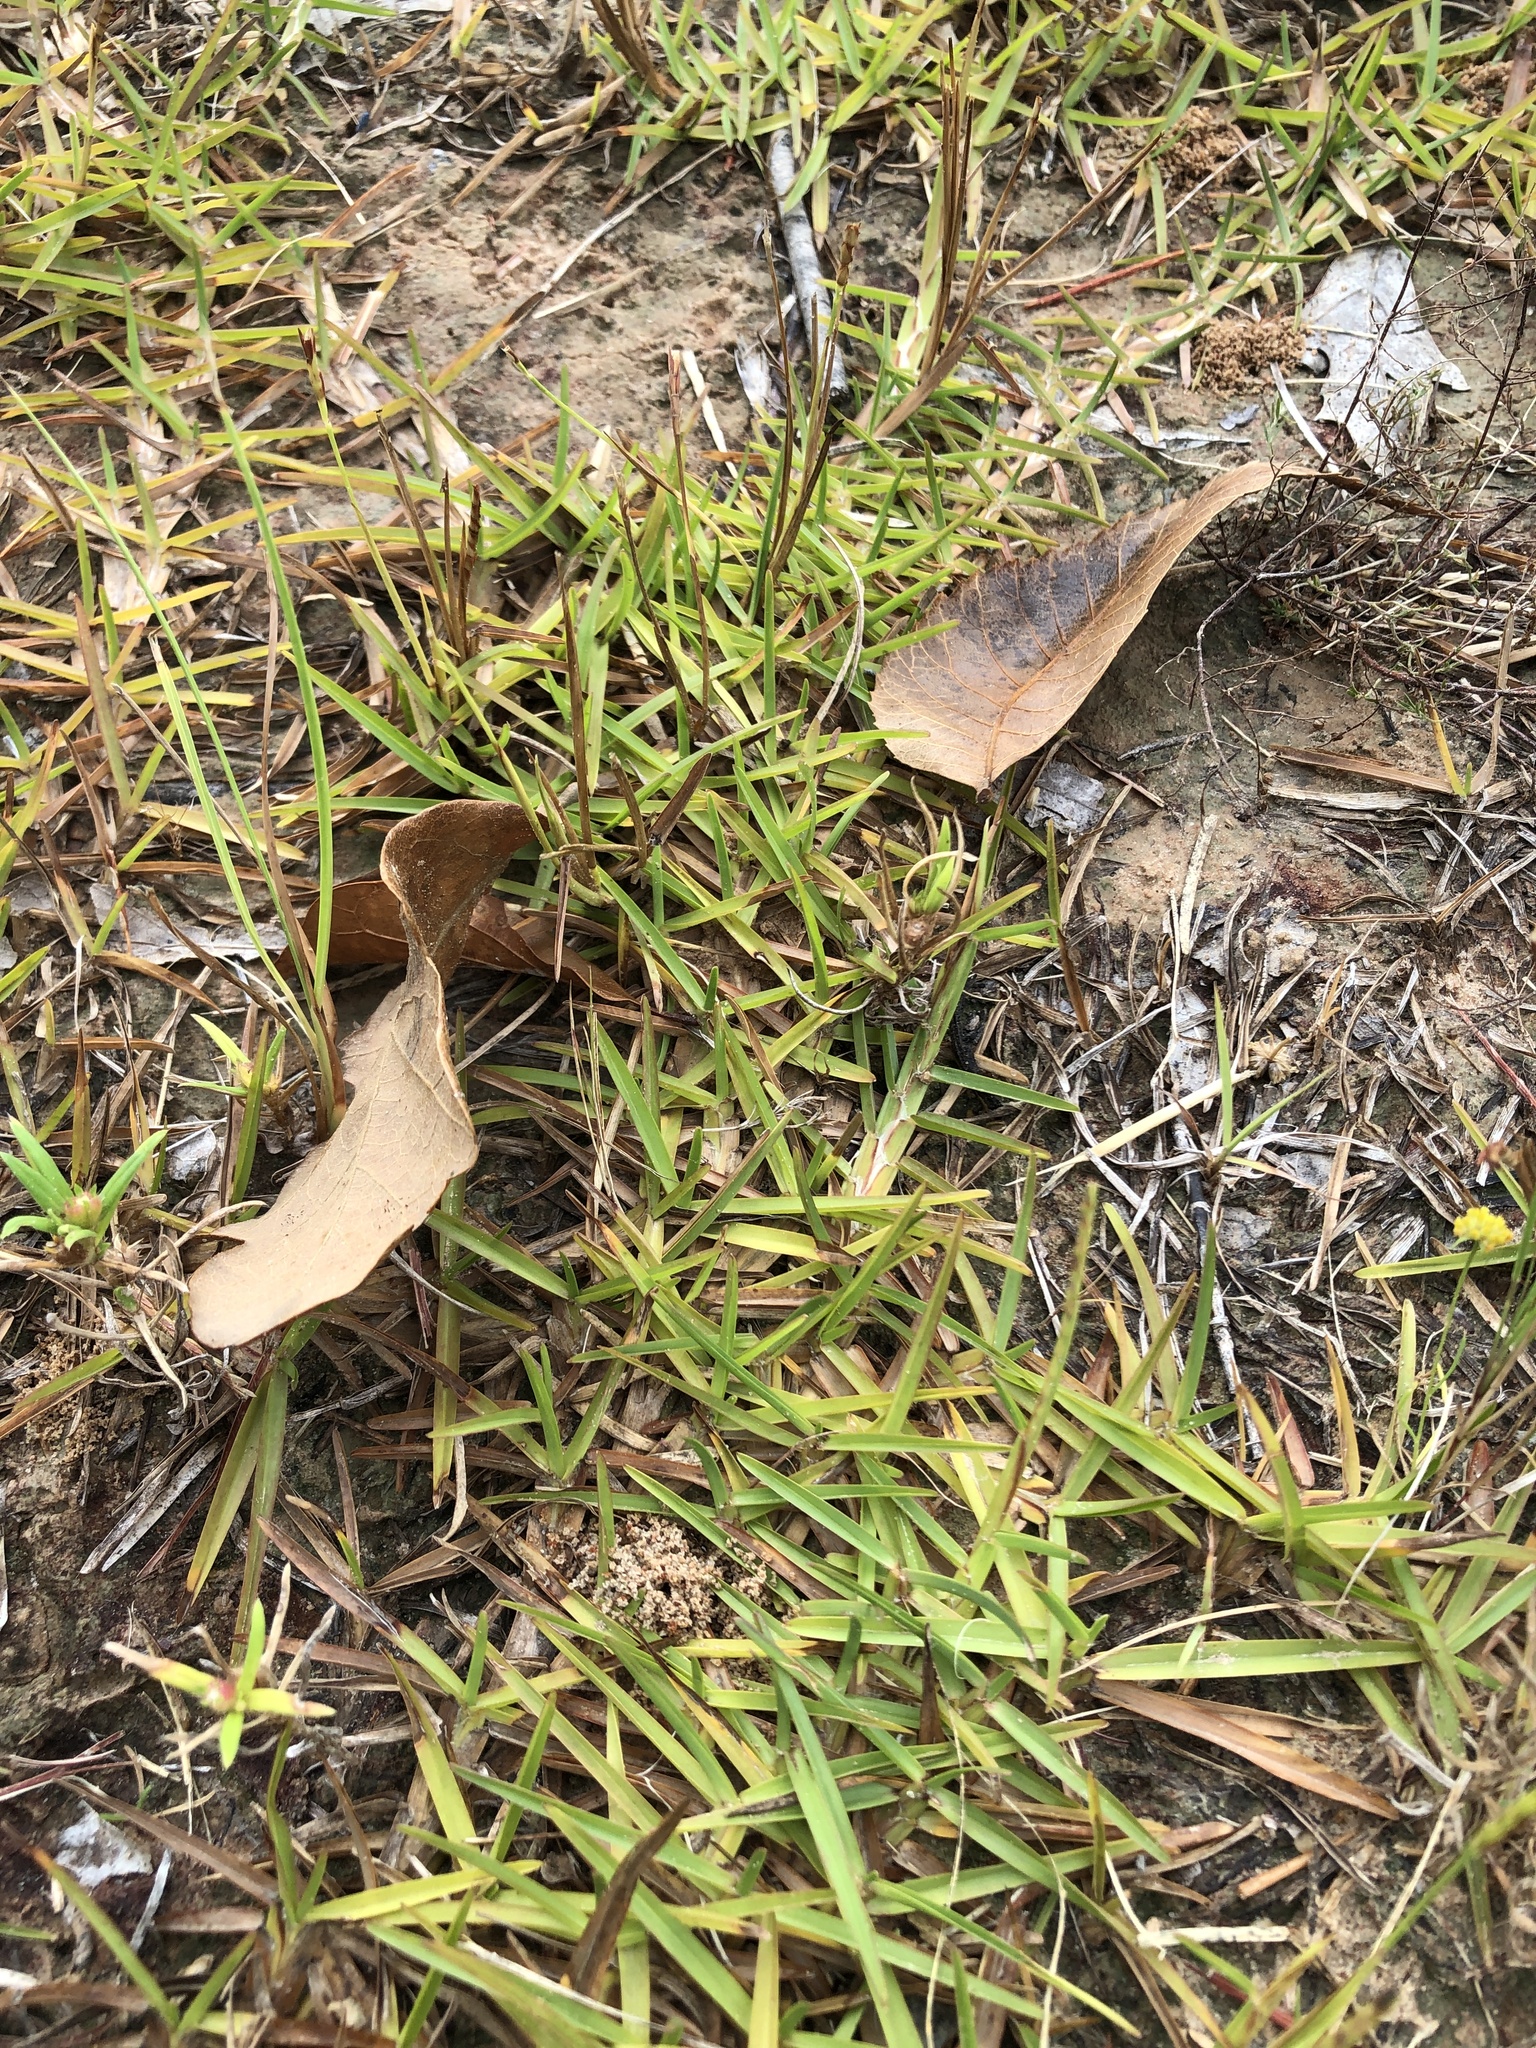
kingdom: Plantae
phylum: Tracheophyta
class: Liliopsida
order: Poales
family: Poaceae
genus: Eremochloa
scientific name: Eremochloa ophiuroides
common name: Centipede grass
